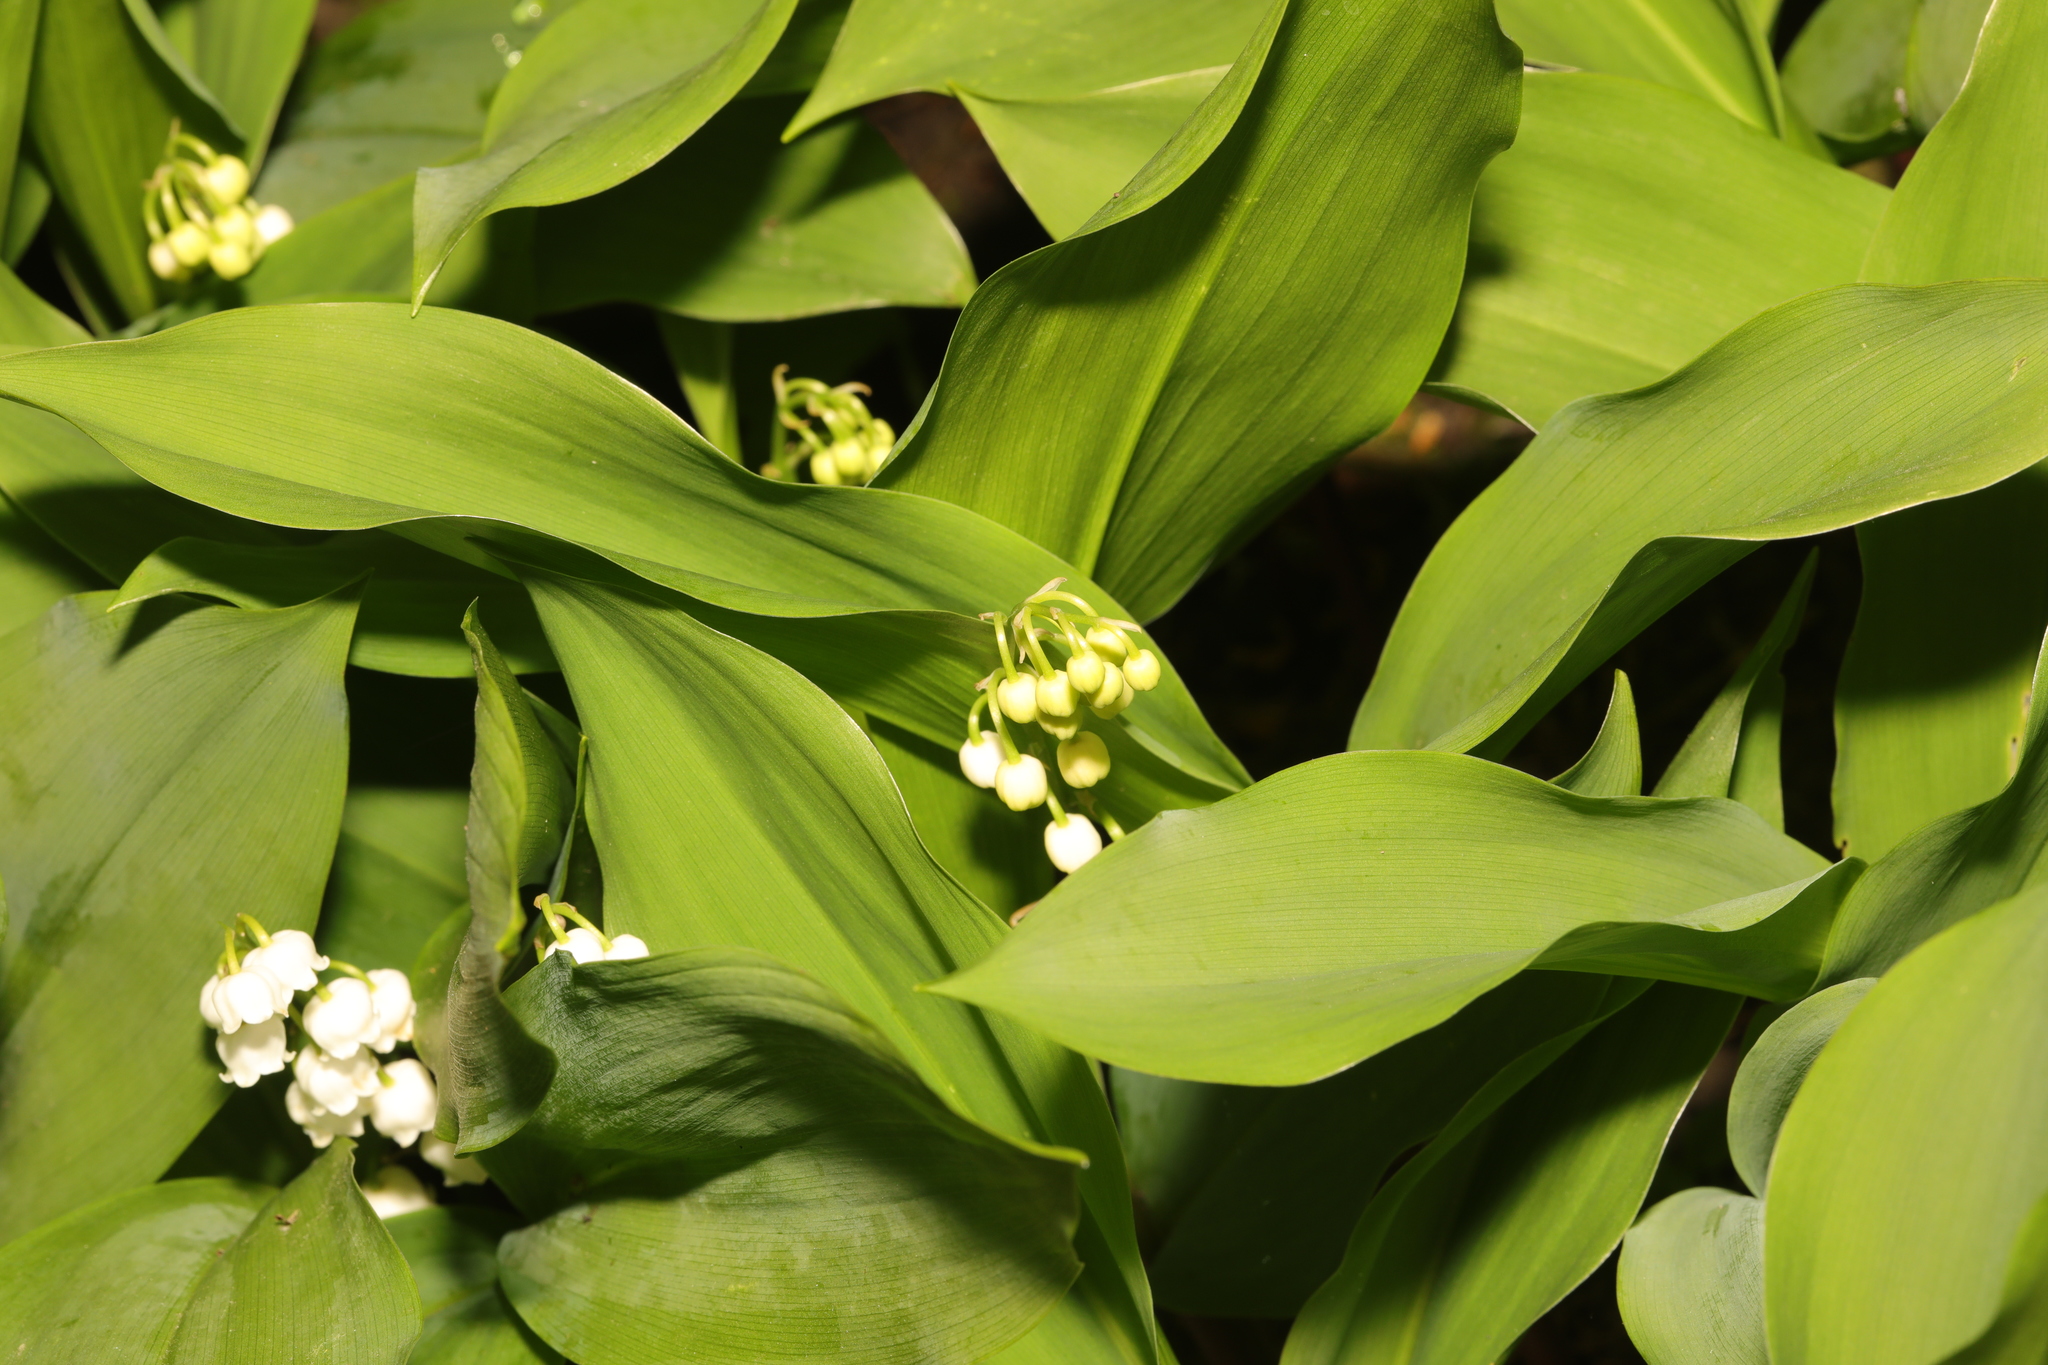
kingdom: Plantae
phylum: Tracheophyta
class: Liliopsida
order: Asparagales
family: Asparagaceae
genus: Convallaria
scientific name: Convallaria majalis
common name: Lily-of-the-valley
